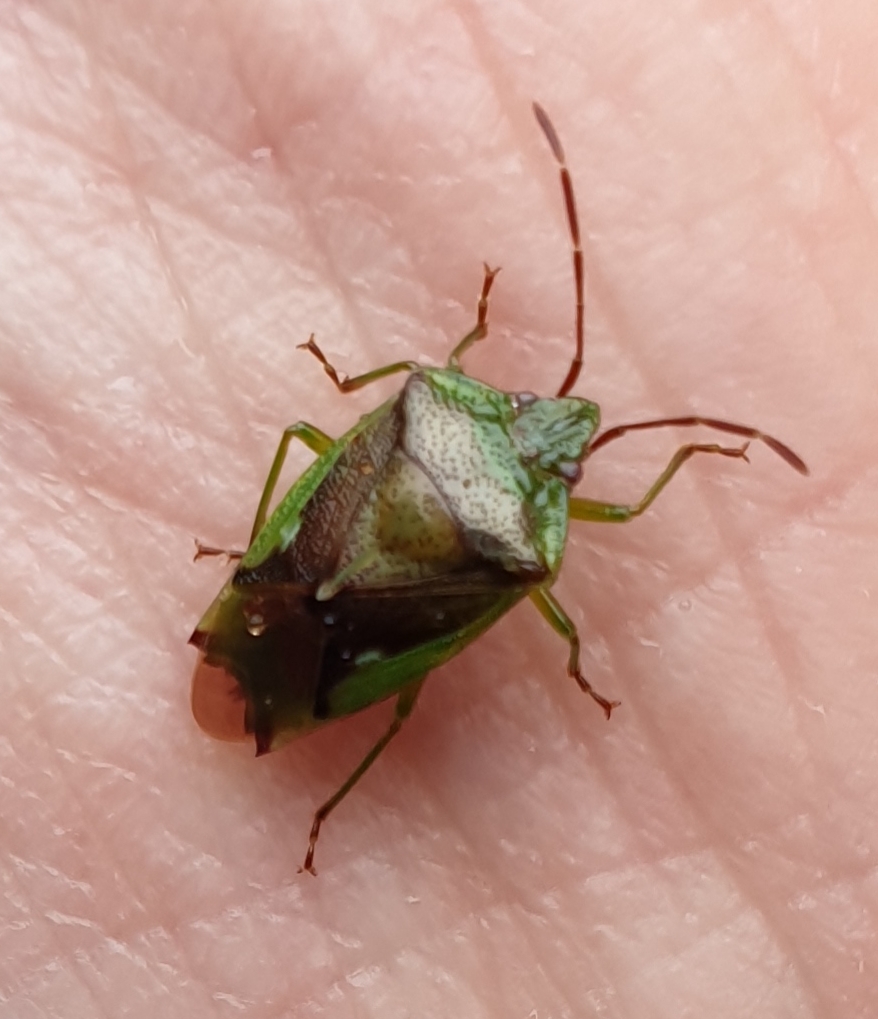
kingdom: Animalia
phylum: Arthropoda
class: Insecta
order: Hemiptera
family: Acanthosomatidae
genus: Oncacontias
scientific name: Oncacontias vittatus
